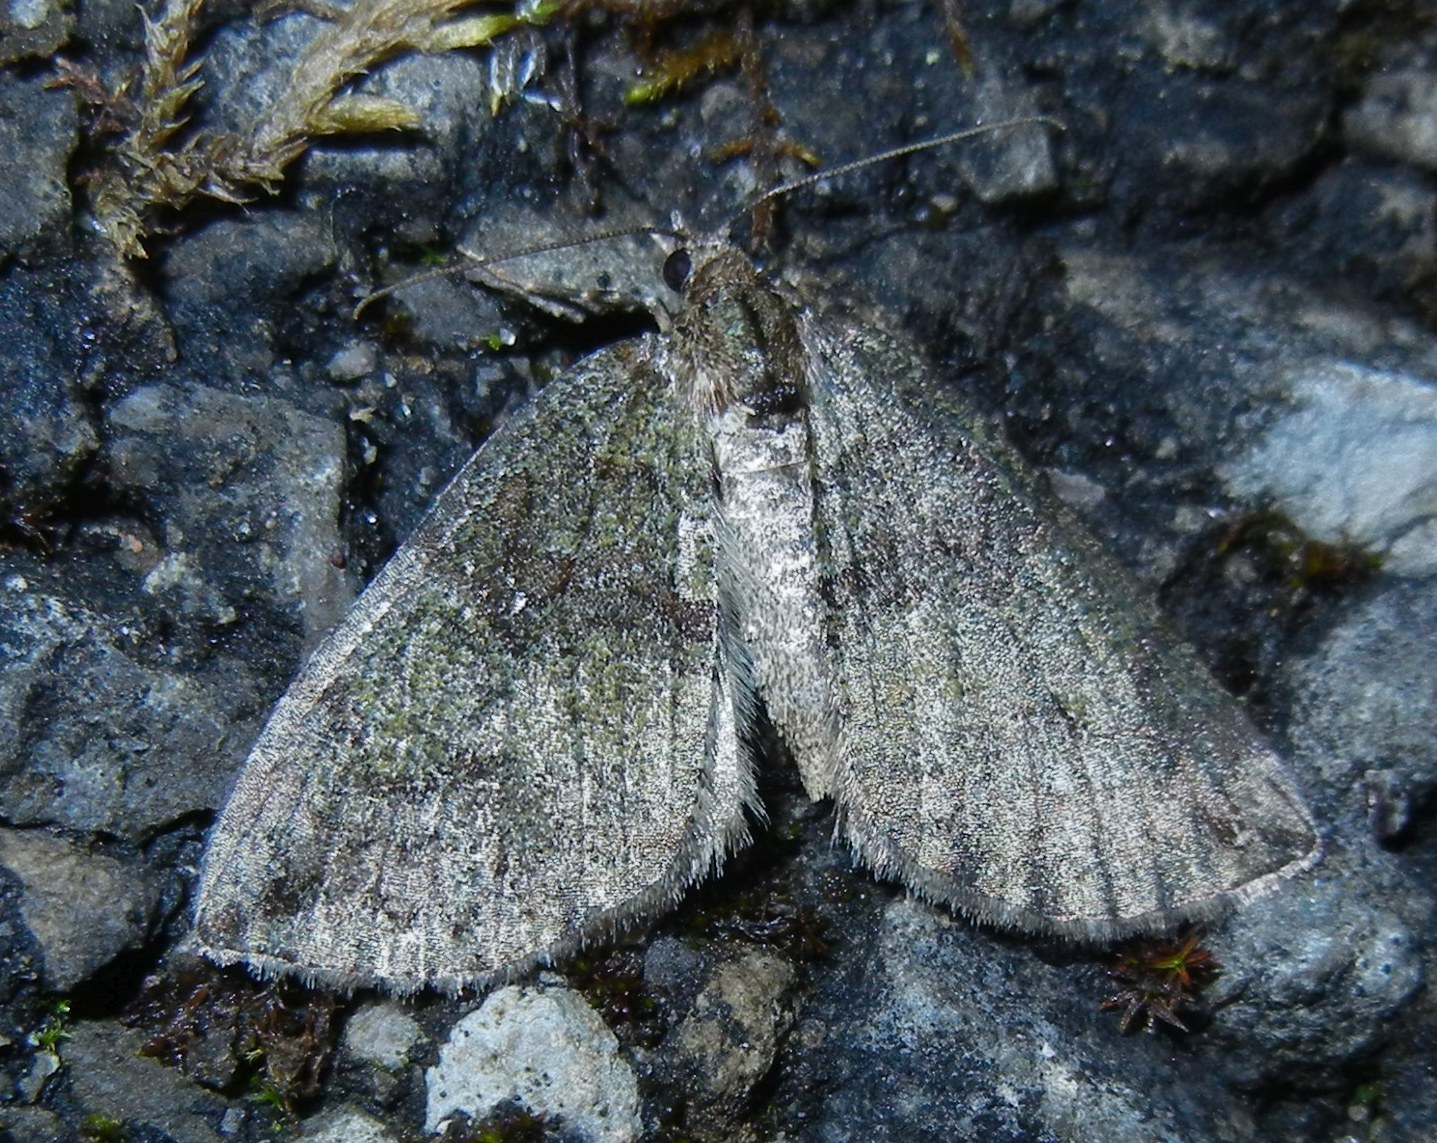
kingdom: Animalia
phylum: Arthropoda
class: Insecta
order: Lepidoptera
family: Geometridae
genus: Hydriomena
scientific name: Hydriomena furcata
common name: July highflyer
